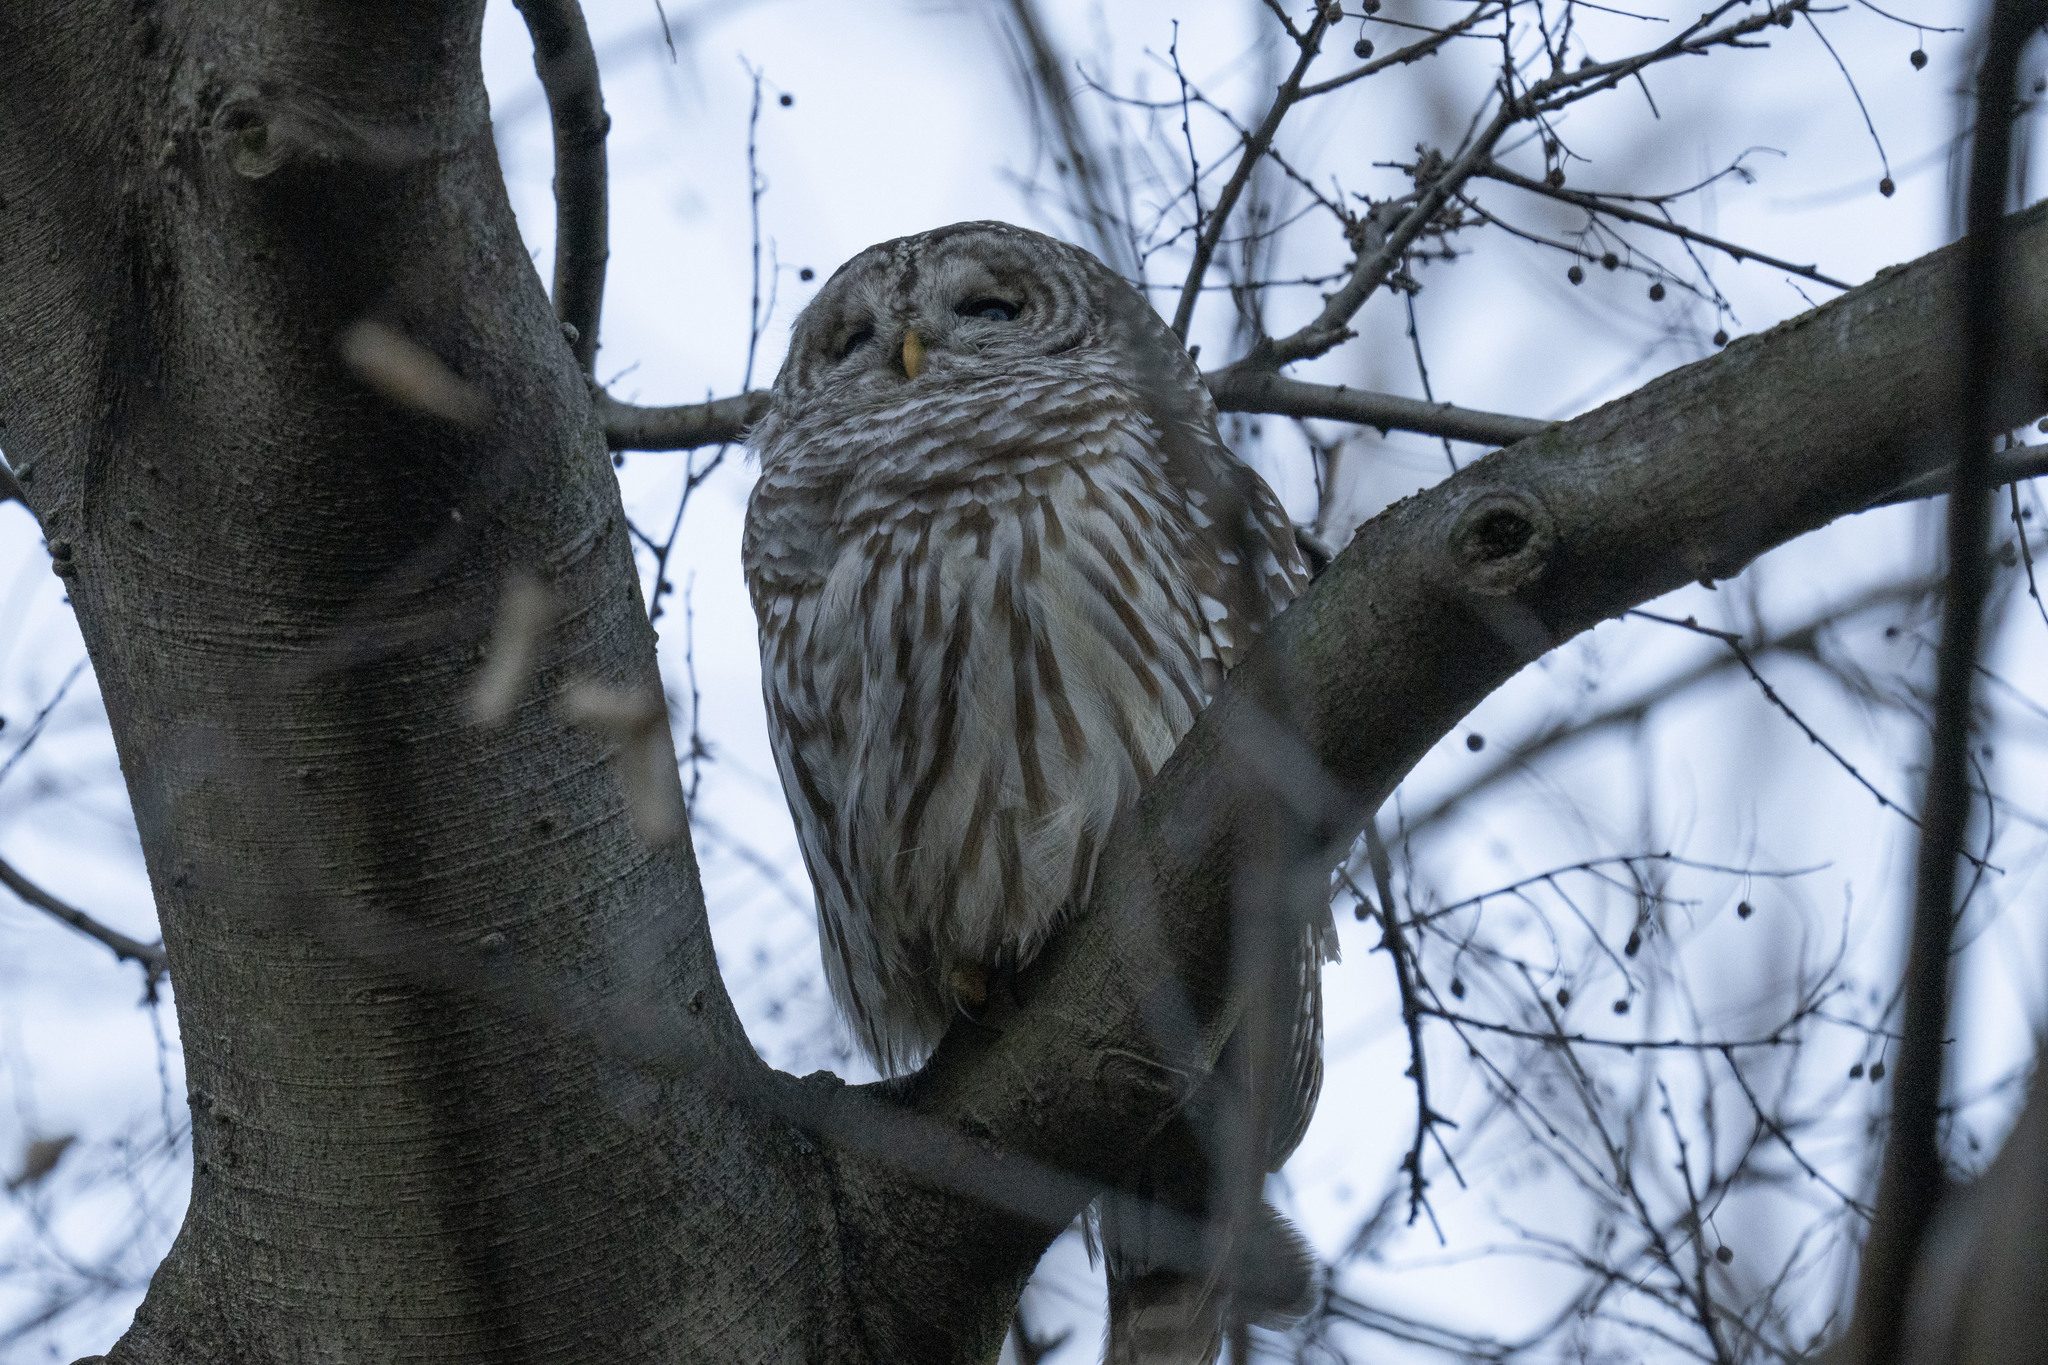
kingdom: Animalia
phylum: Chordata
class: Aves
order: Strigiformes
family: Strigidae
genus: Strix
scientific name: Strix varia
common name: Barred owl
